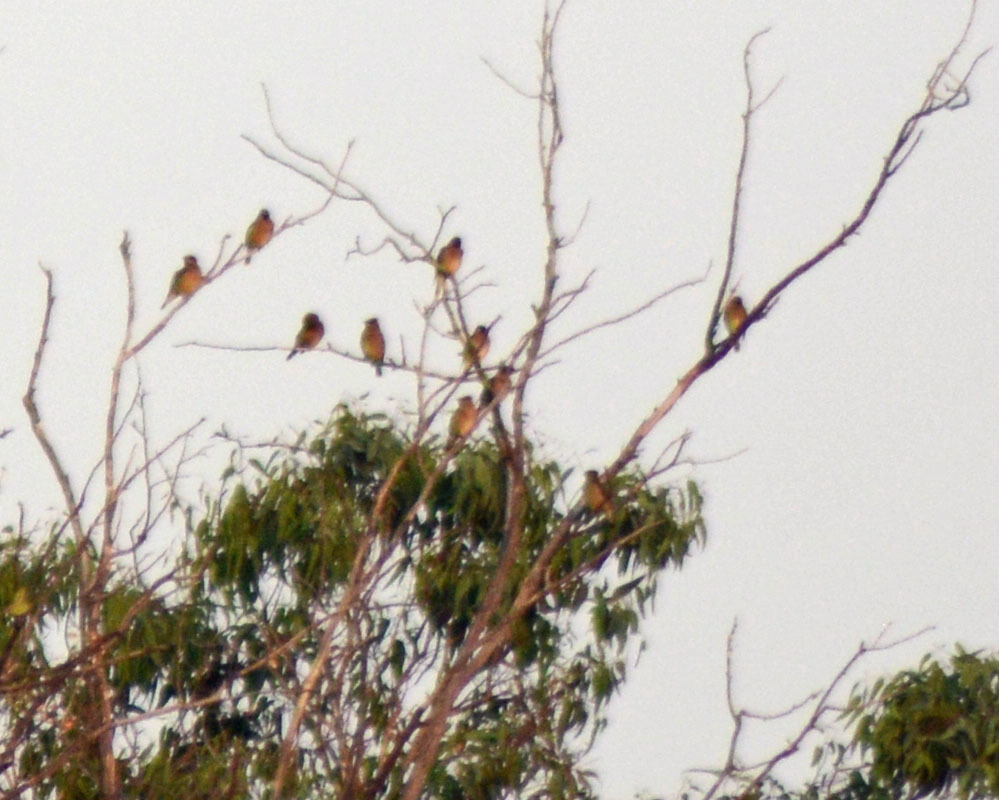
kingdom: Animalia
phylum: Chordata
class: Aves
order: Passeriformes
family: Bombycillidae
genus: Bombycilla
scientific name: Bombycilla cedrorum
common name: Cedar waxwing
